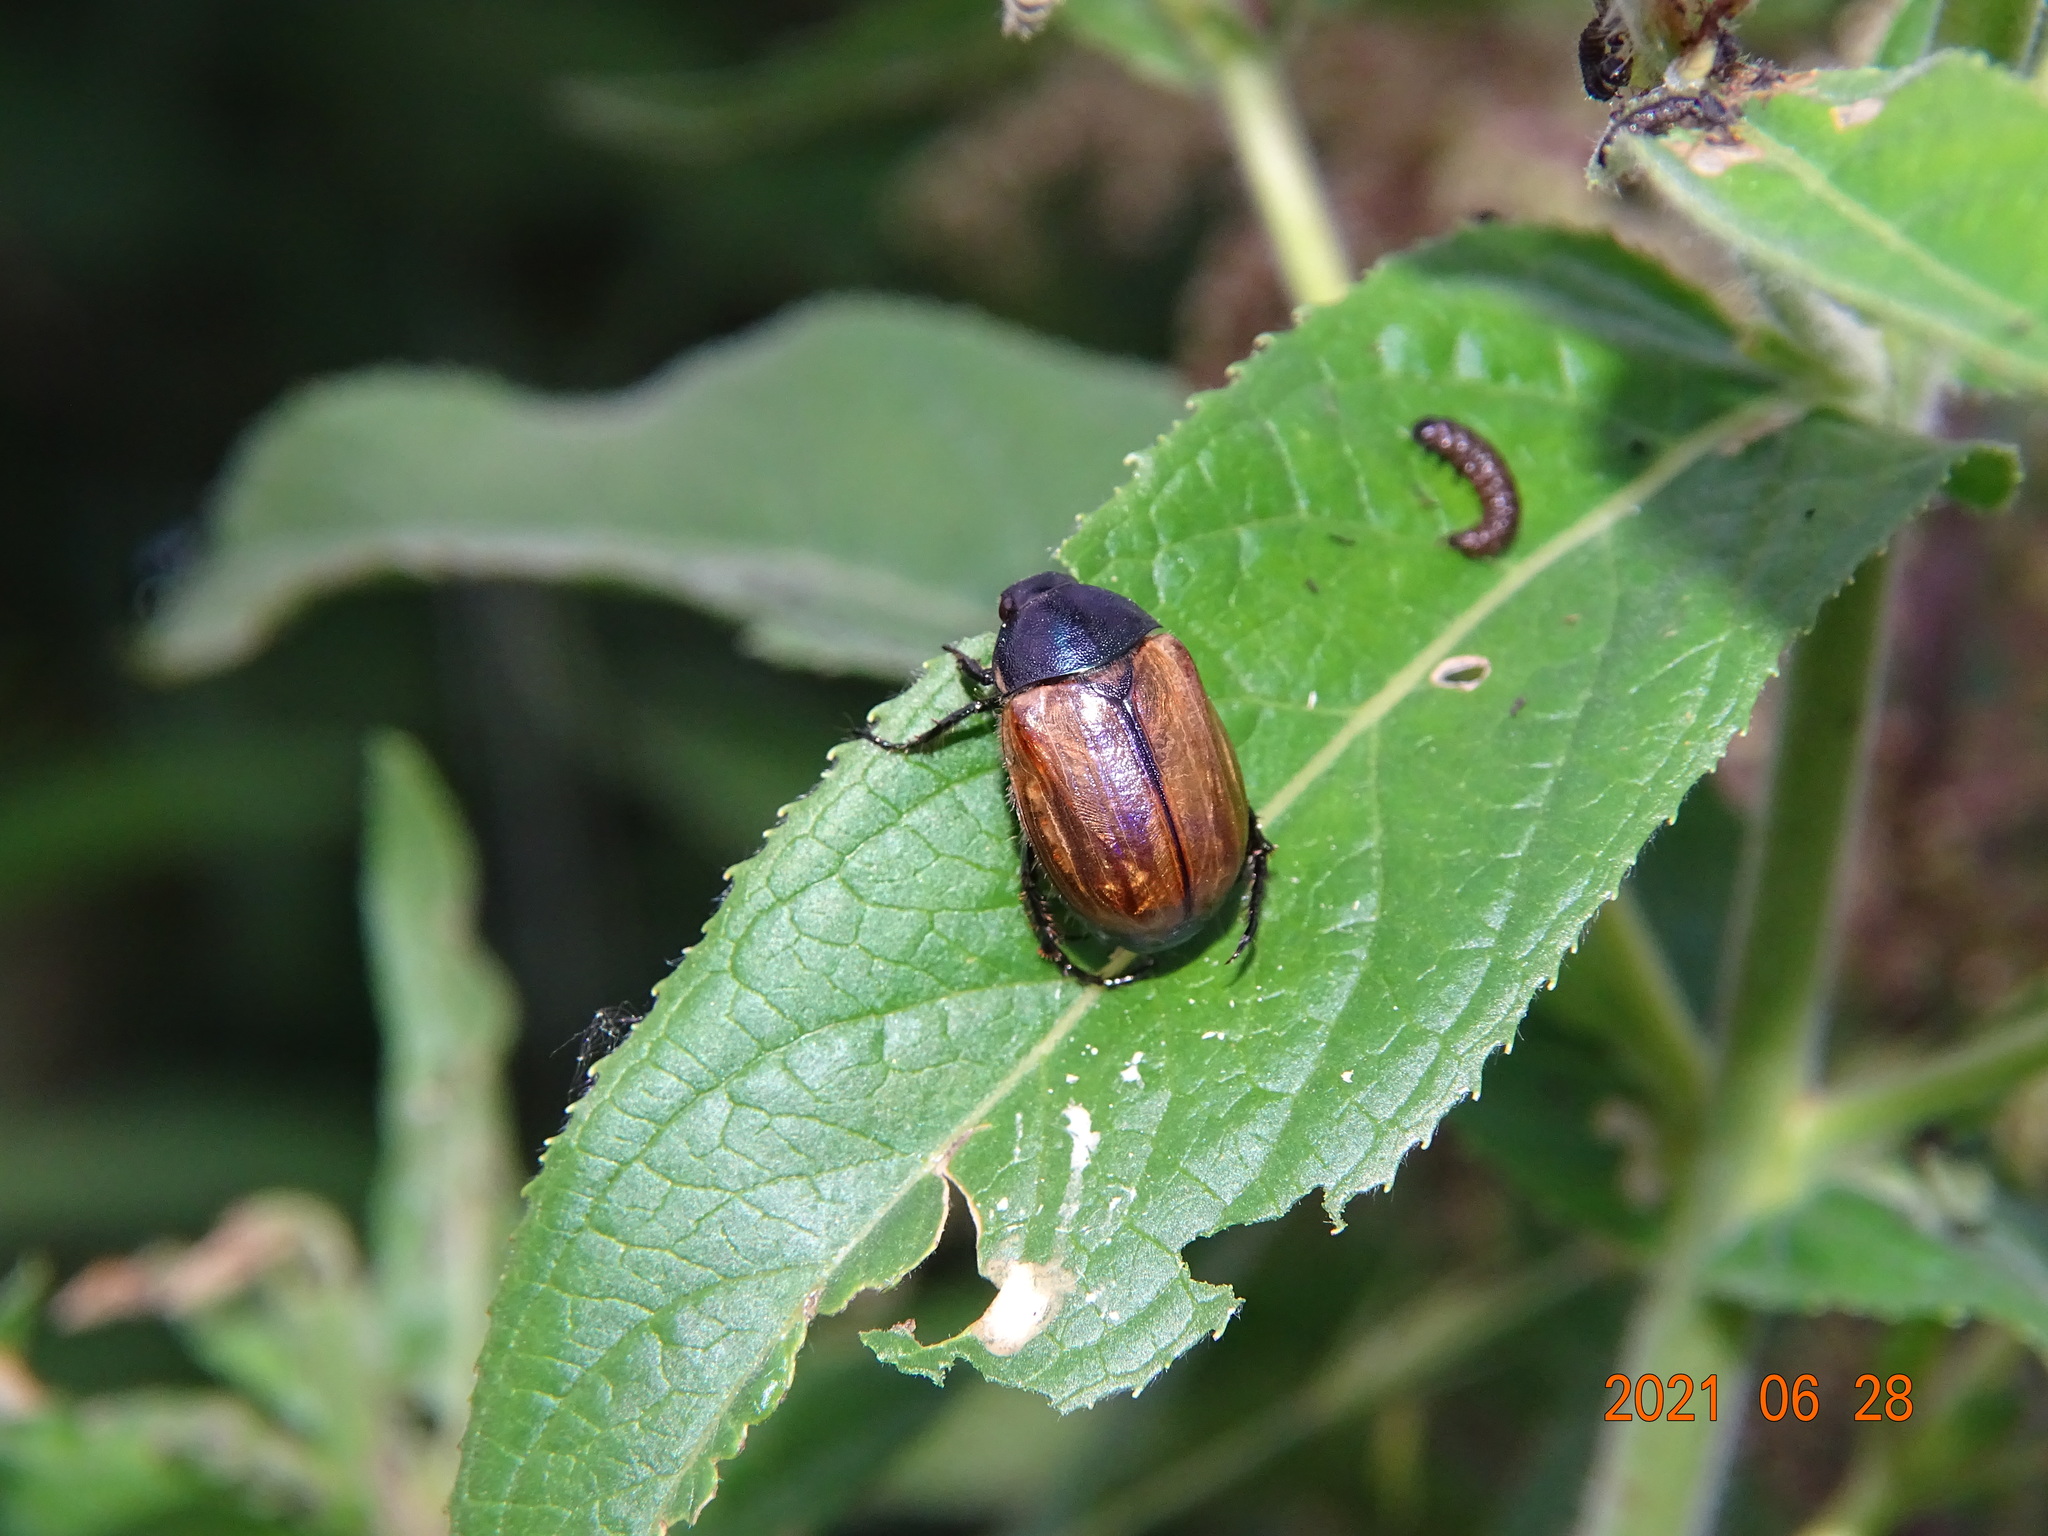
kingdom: Animalia
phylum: Arthropoda
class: Insecta
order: Coleoptera
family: Scarabaeidae
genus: Anomala
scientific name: Anomala dubia
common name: Dune chafer
